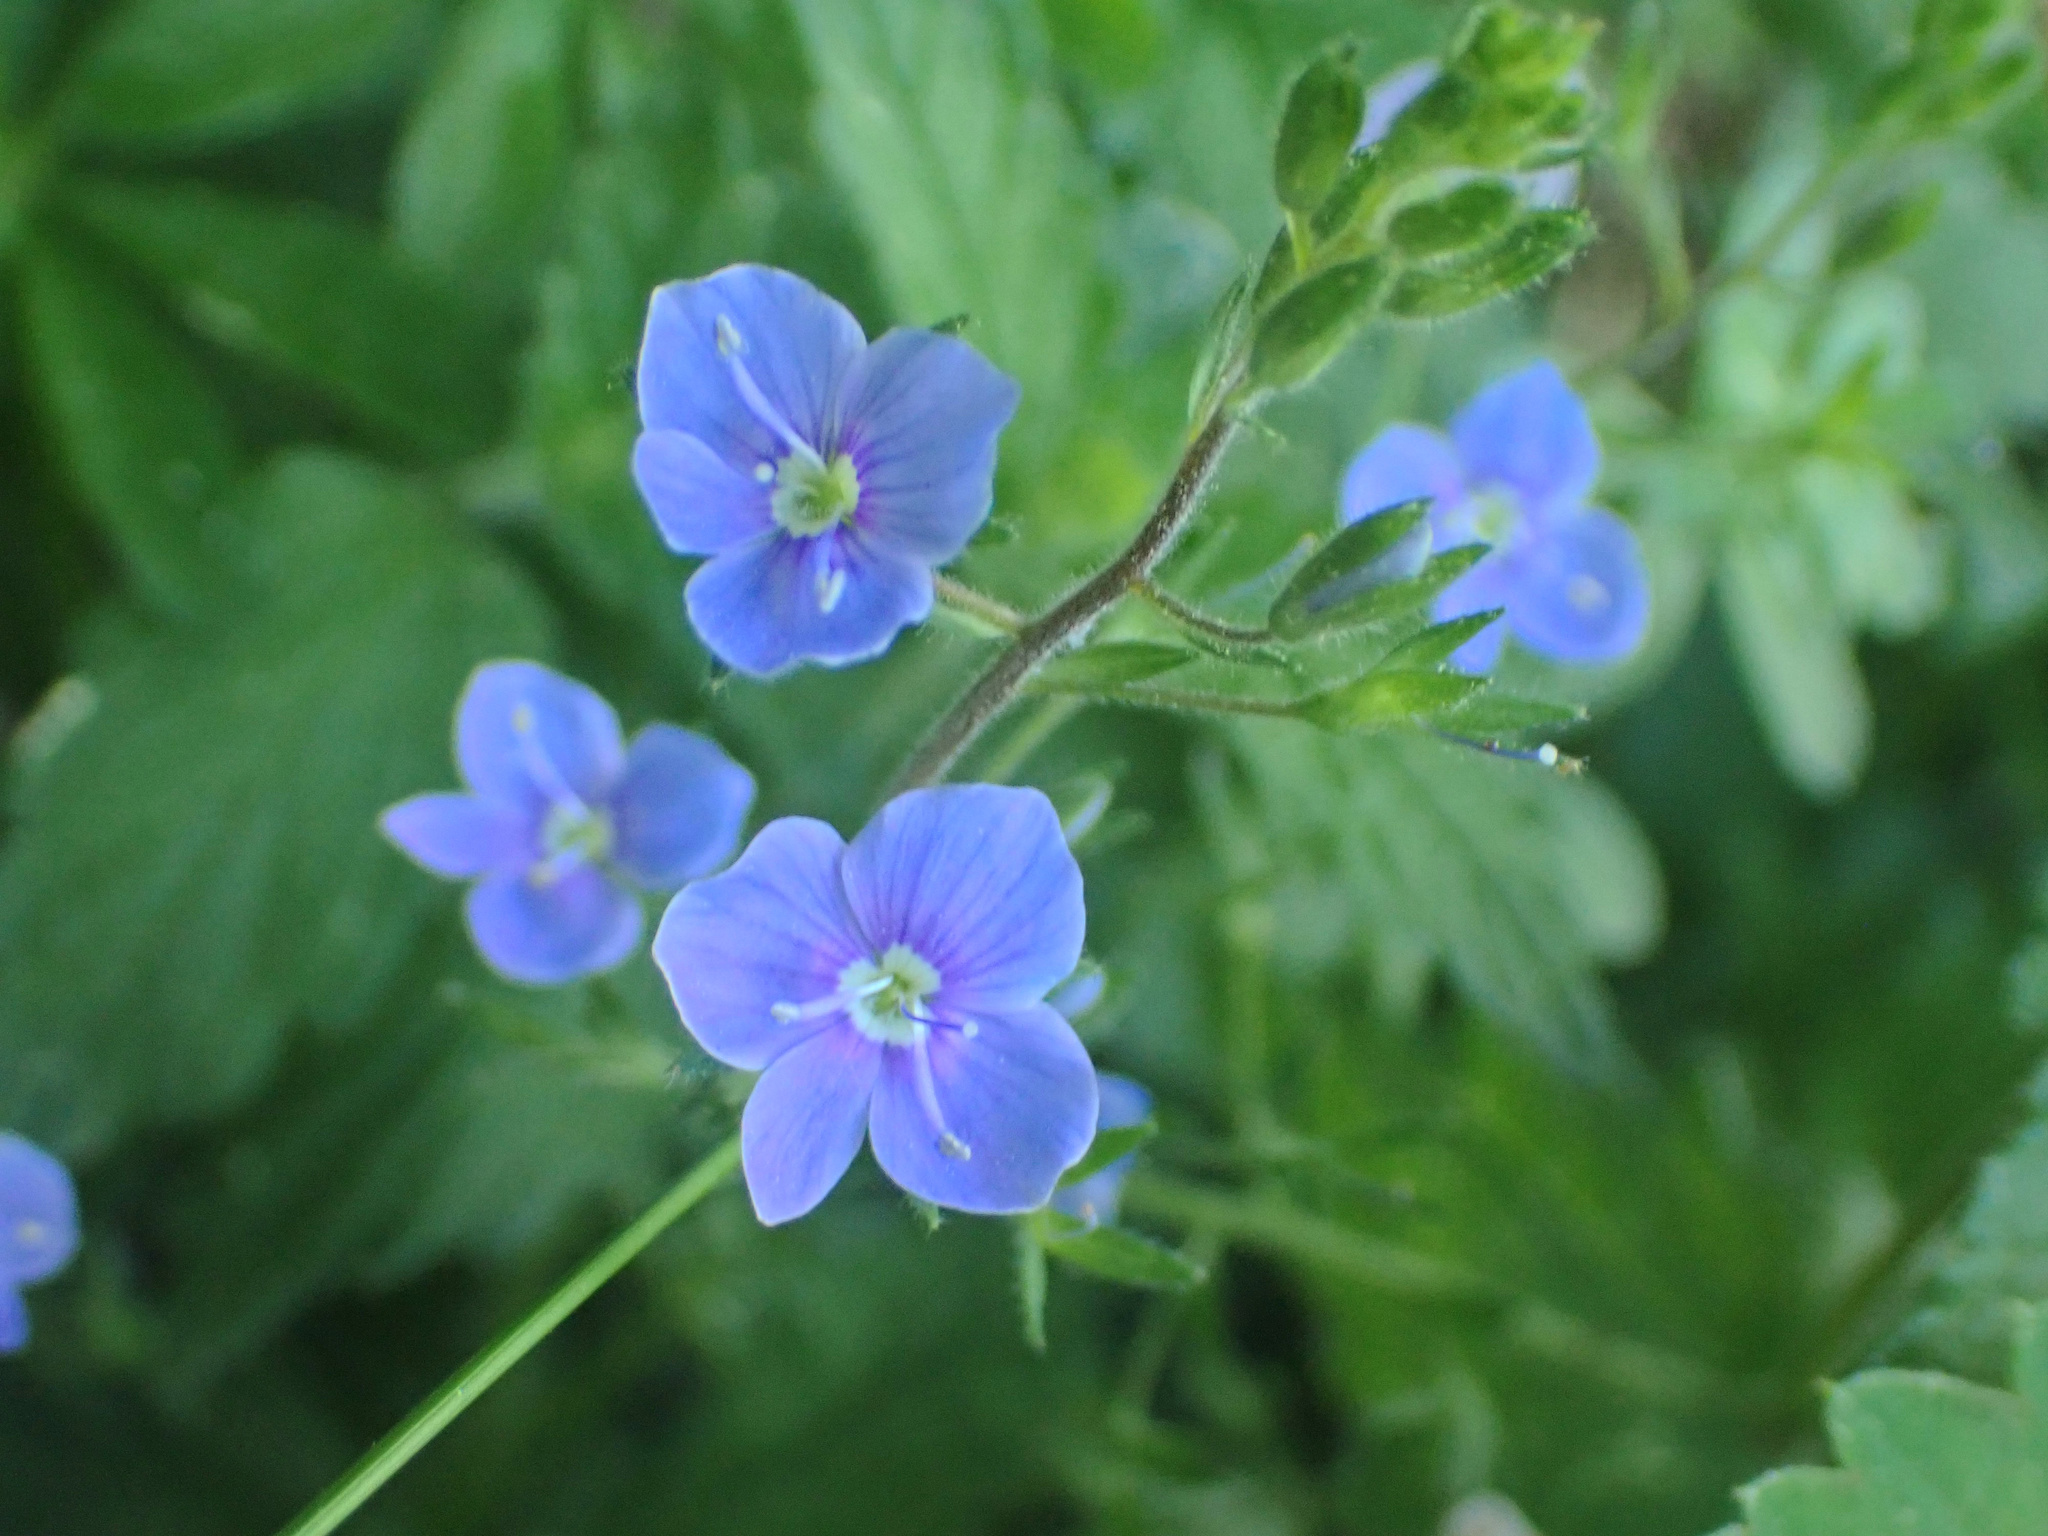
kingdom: Plantae
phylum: Tracheophyta
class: Magnoliopsida
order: Lamiales
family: Plantaginaceae
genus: Veronica
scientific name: Veronica chamaedrys
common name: Germander speedwell
